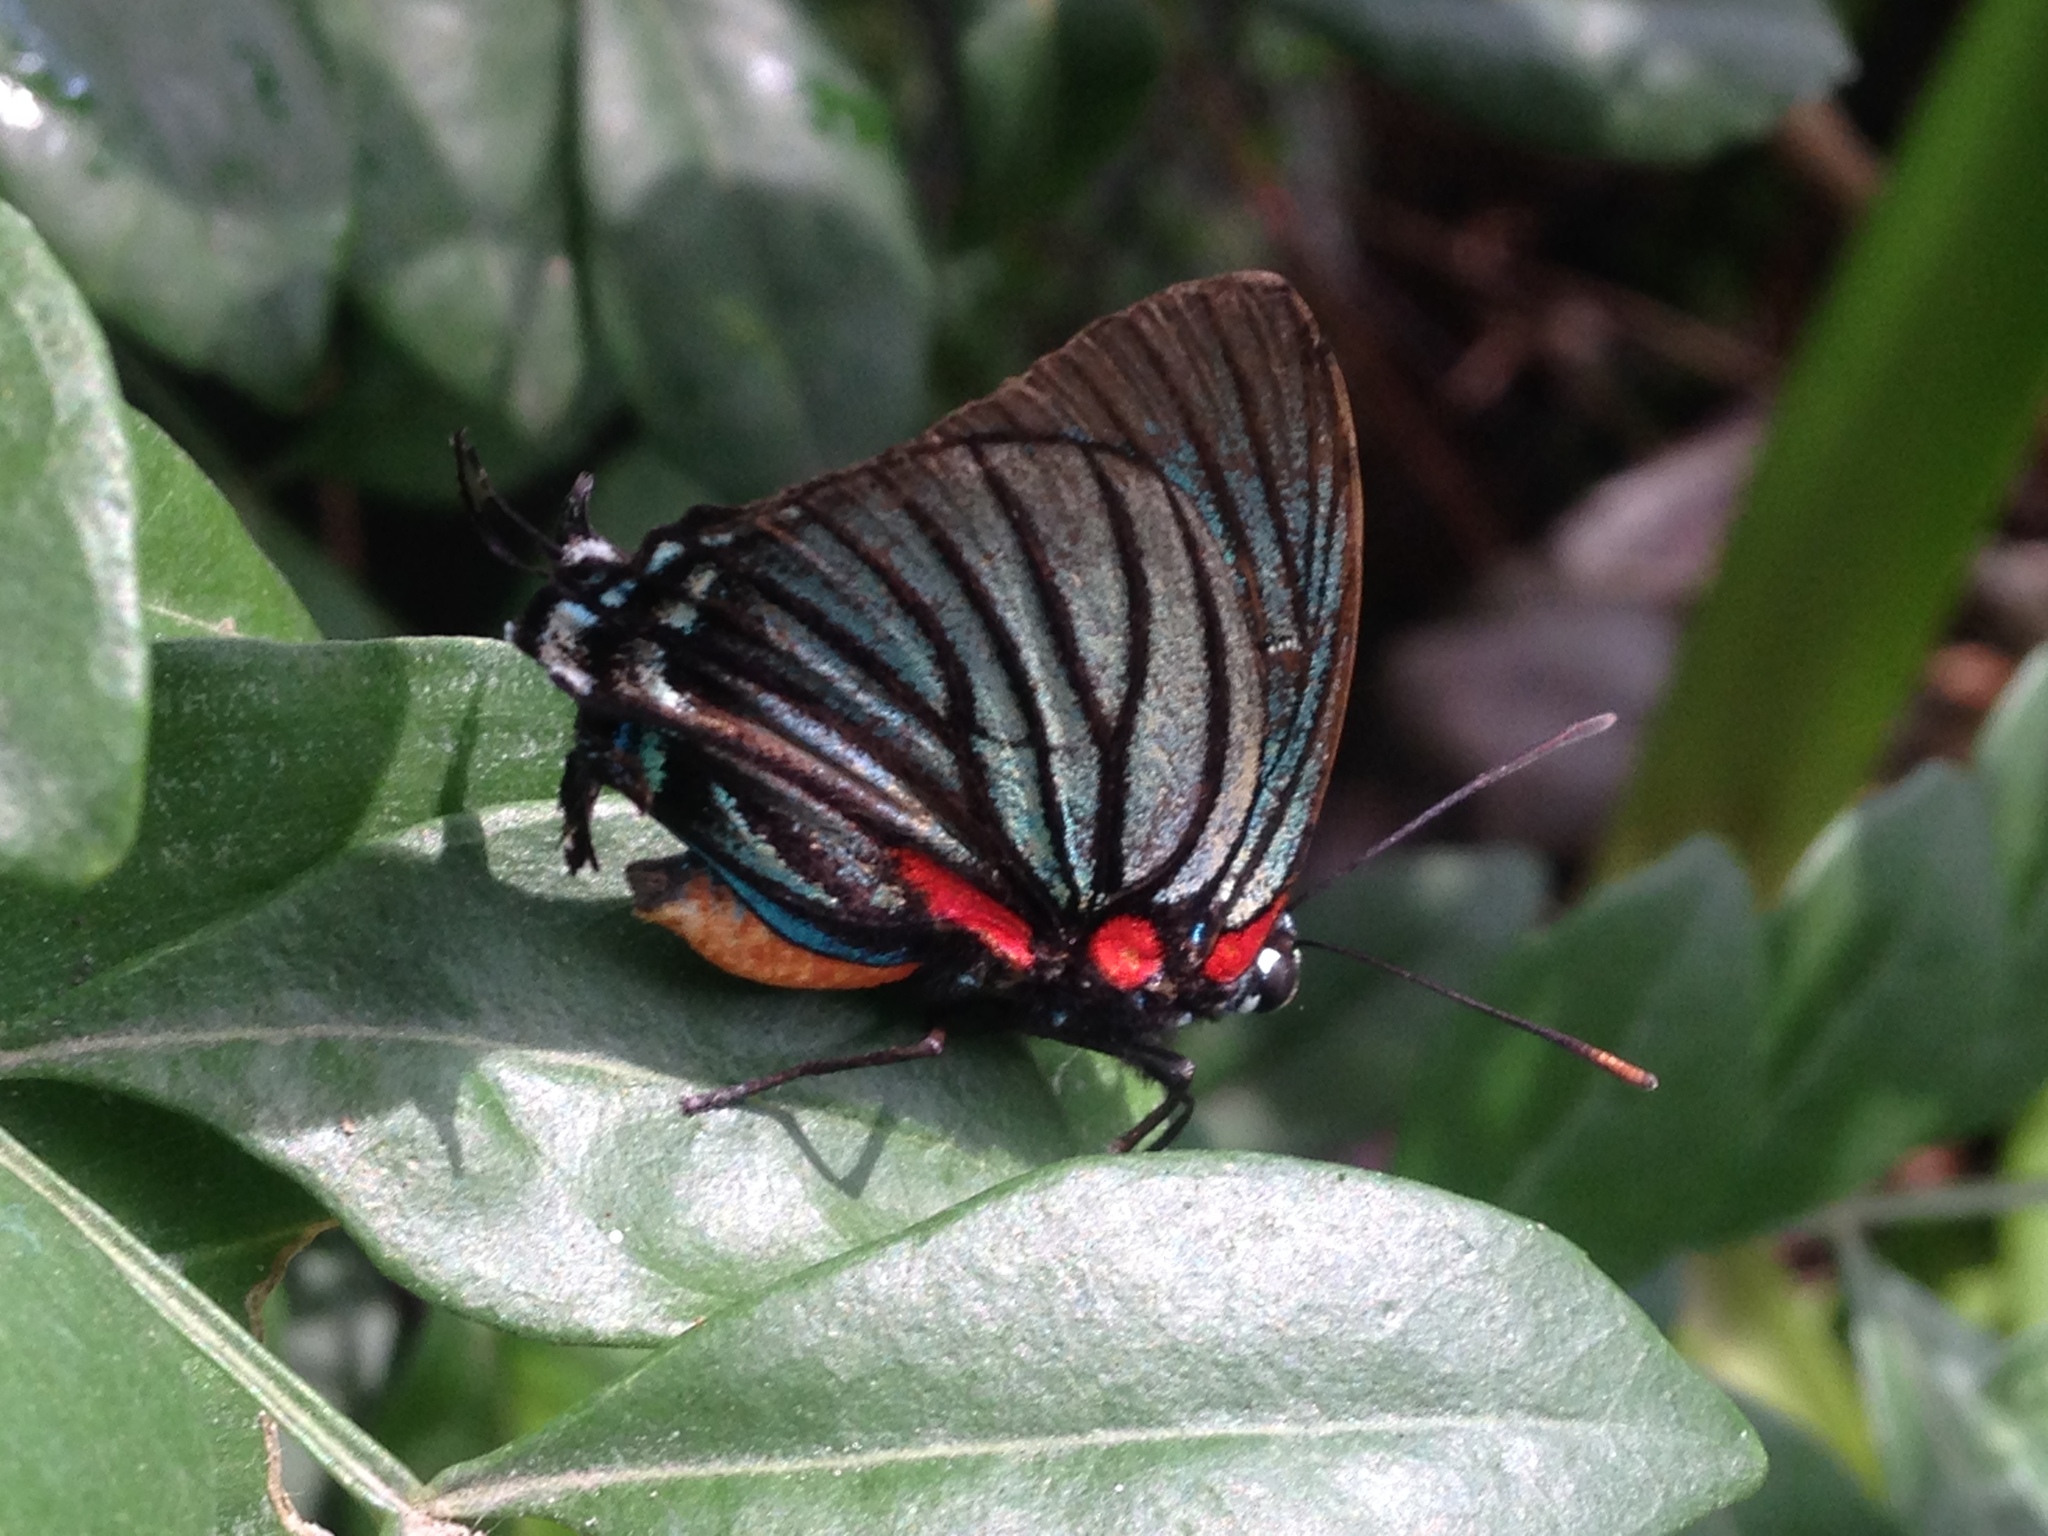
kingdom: Animalia
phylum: Arthropoda
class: Insecta
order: Lepidoptera
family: Lycaenidae
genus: Thecla
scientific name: Thecla polybe
